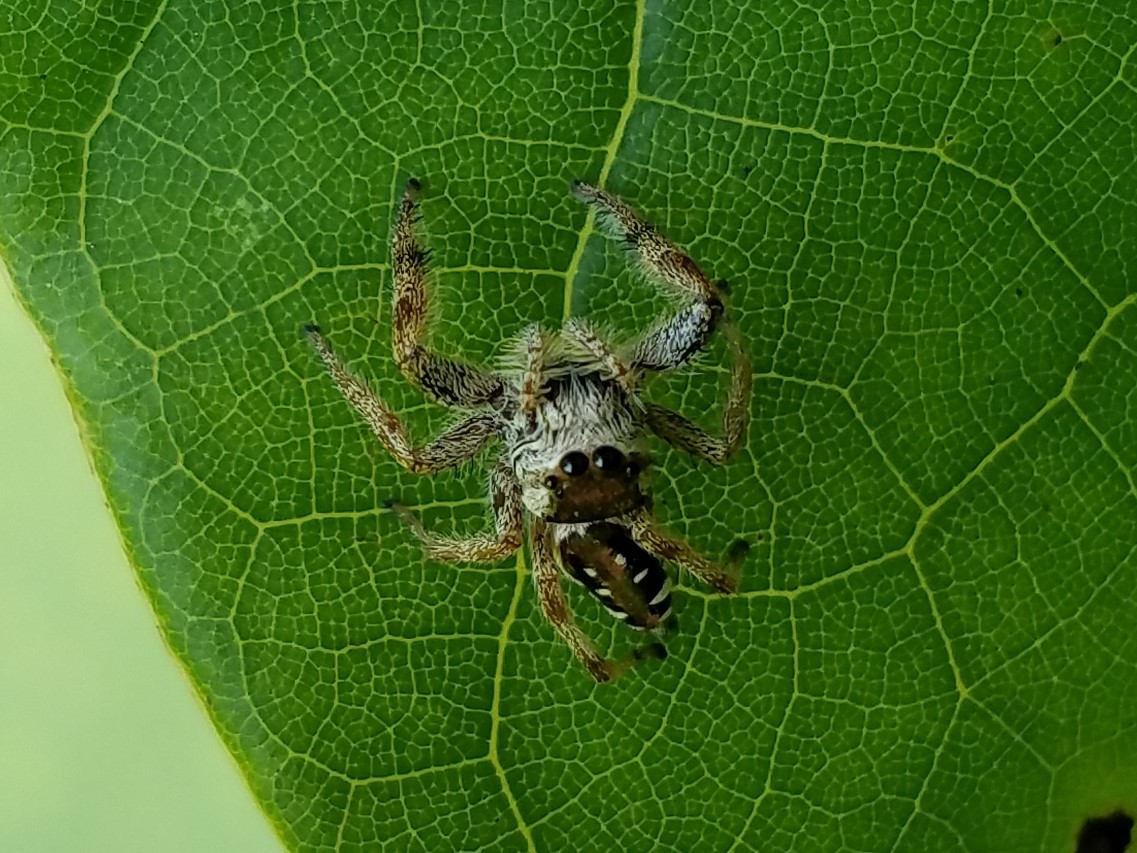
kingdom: Animalia
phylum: Arthropoda
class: Arachnida
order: Araneae
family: Salticidae
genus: Paraphidippus
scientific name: Paraphidippus aurantius
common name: Jumping spiders
